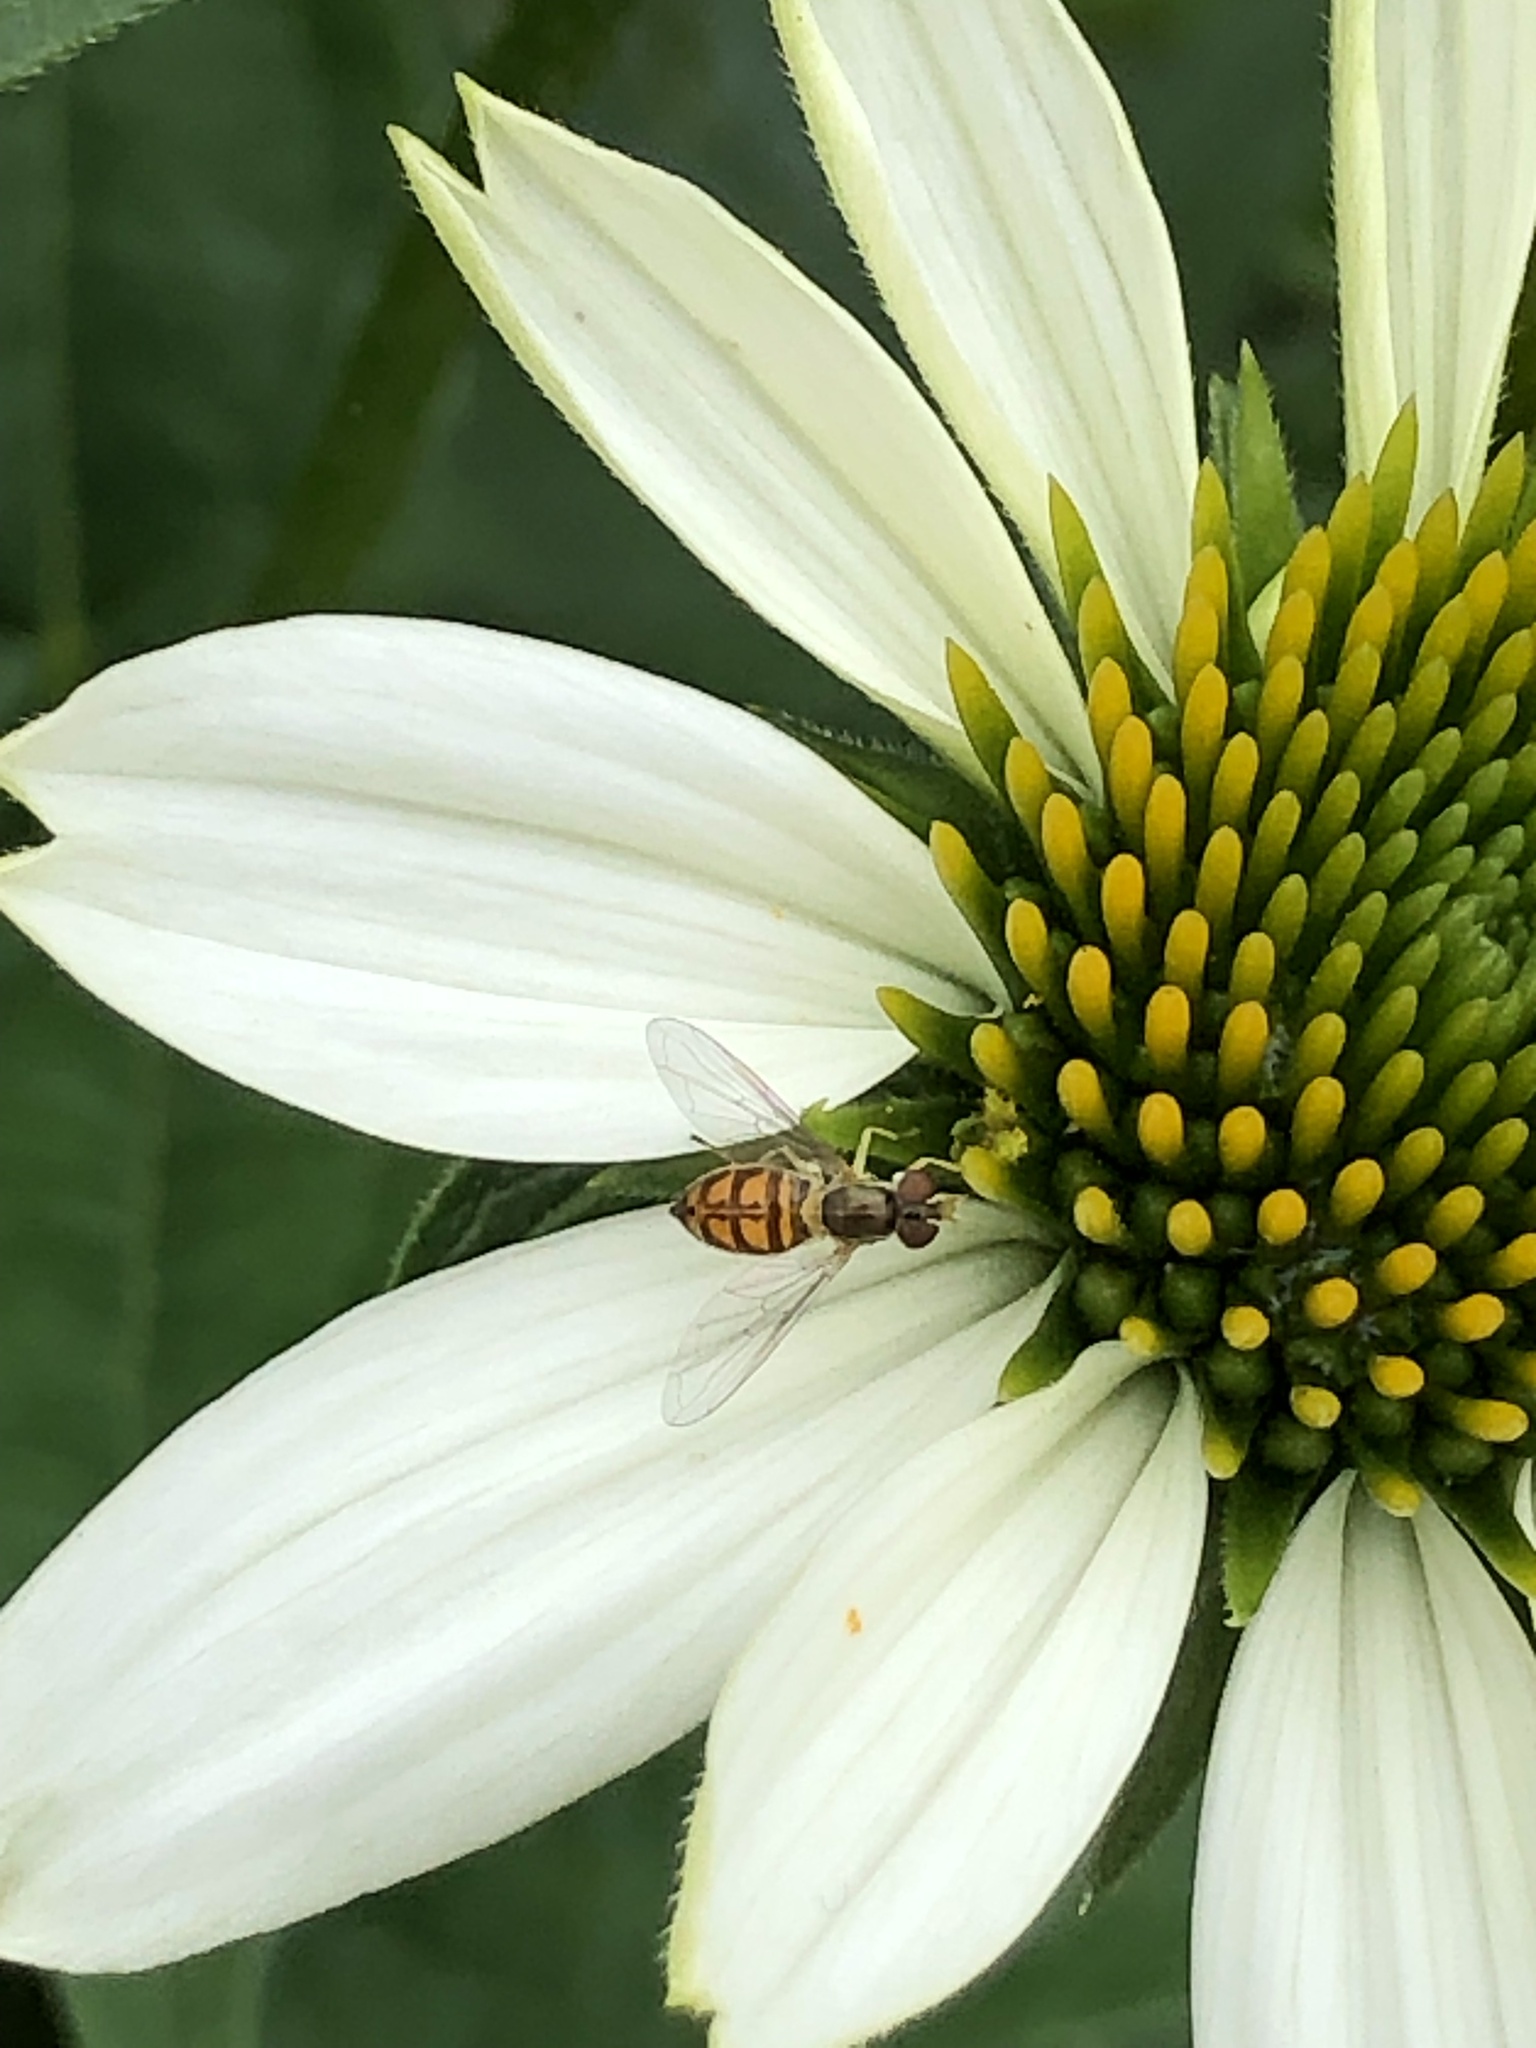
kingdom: Animalia
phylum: Arthropoda
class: Insecta
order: Diptera
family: Syrphidae
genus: Toxomerus
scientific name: Toxomerus marginatus
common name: Syrphid fly
